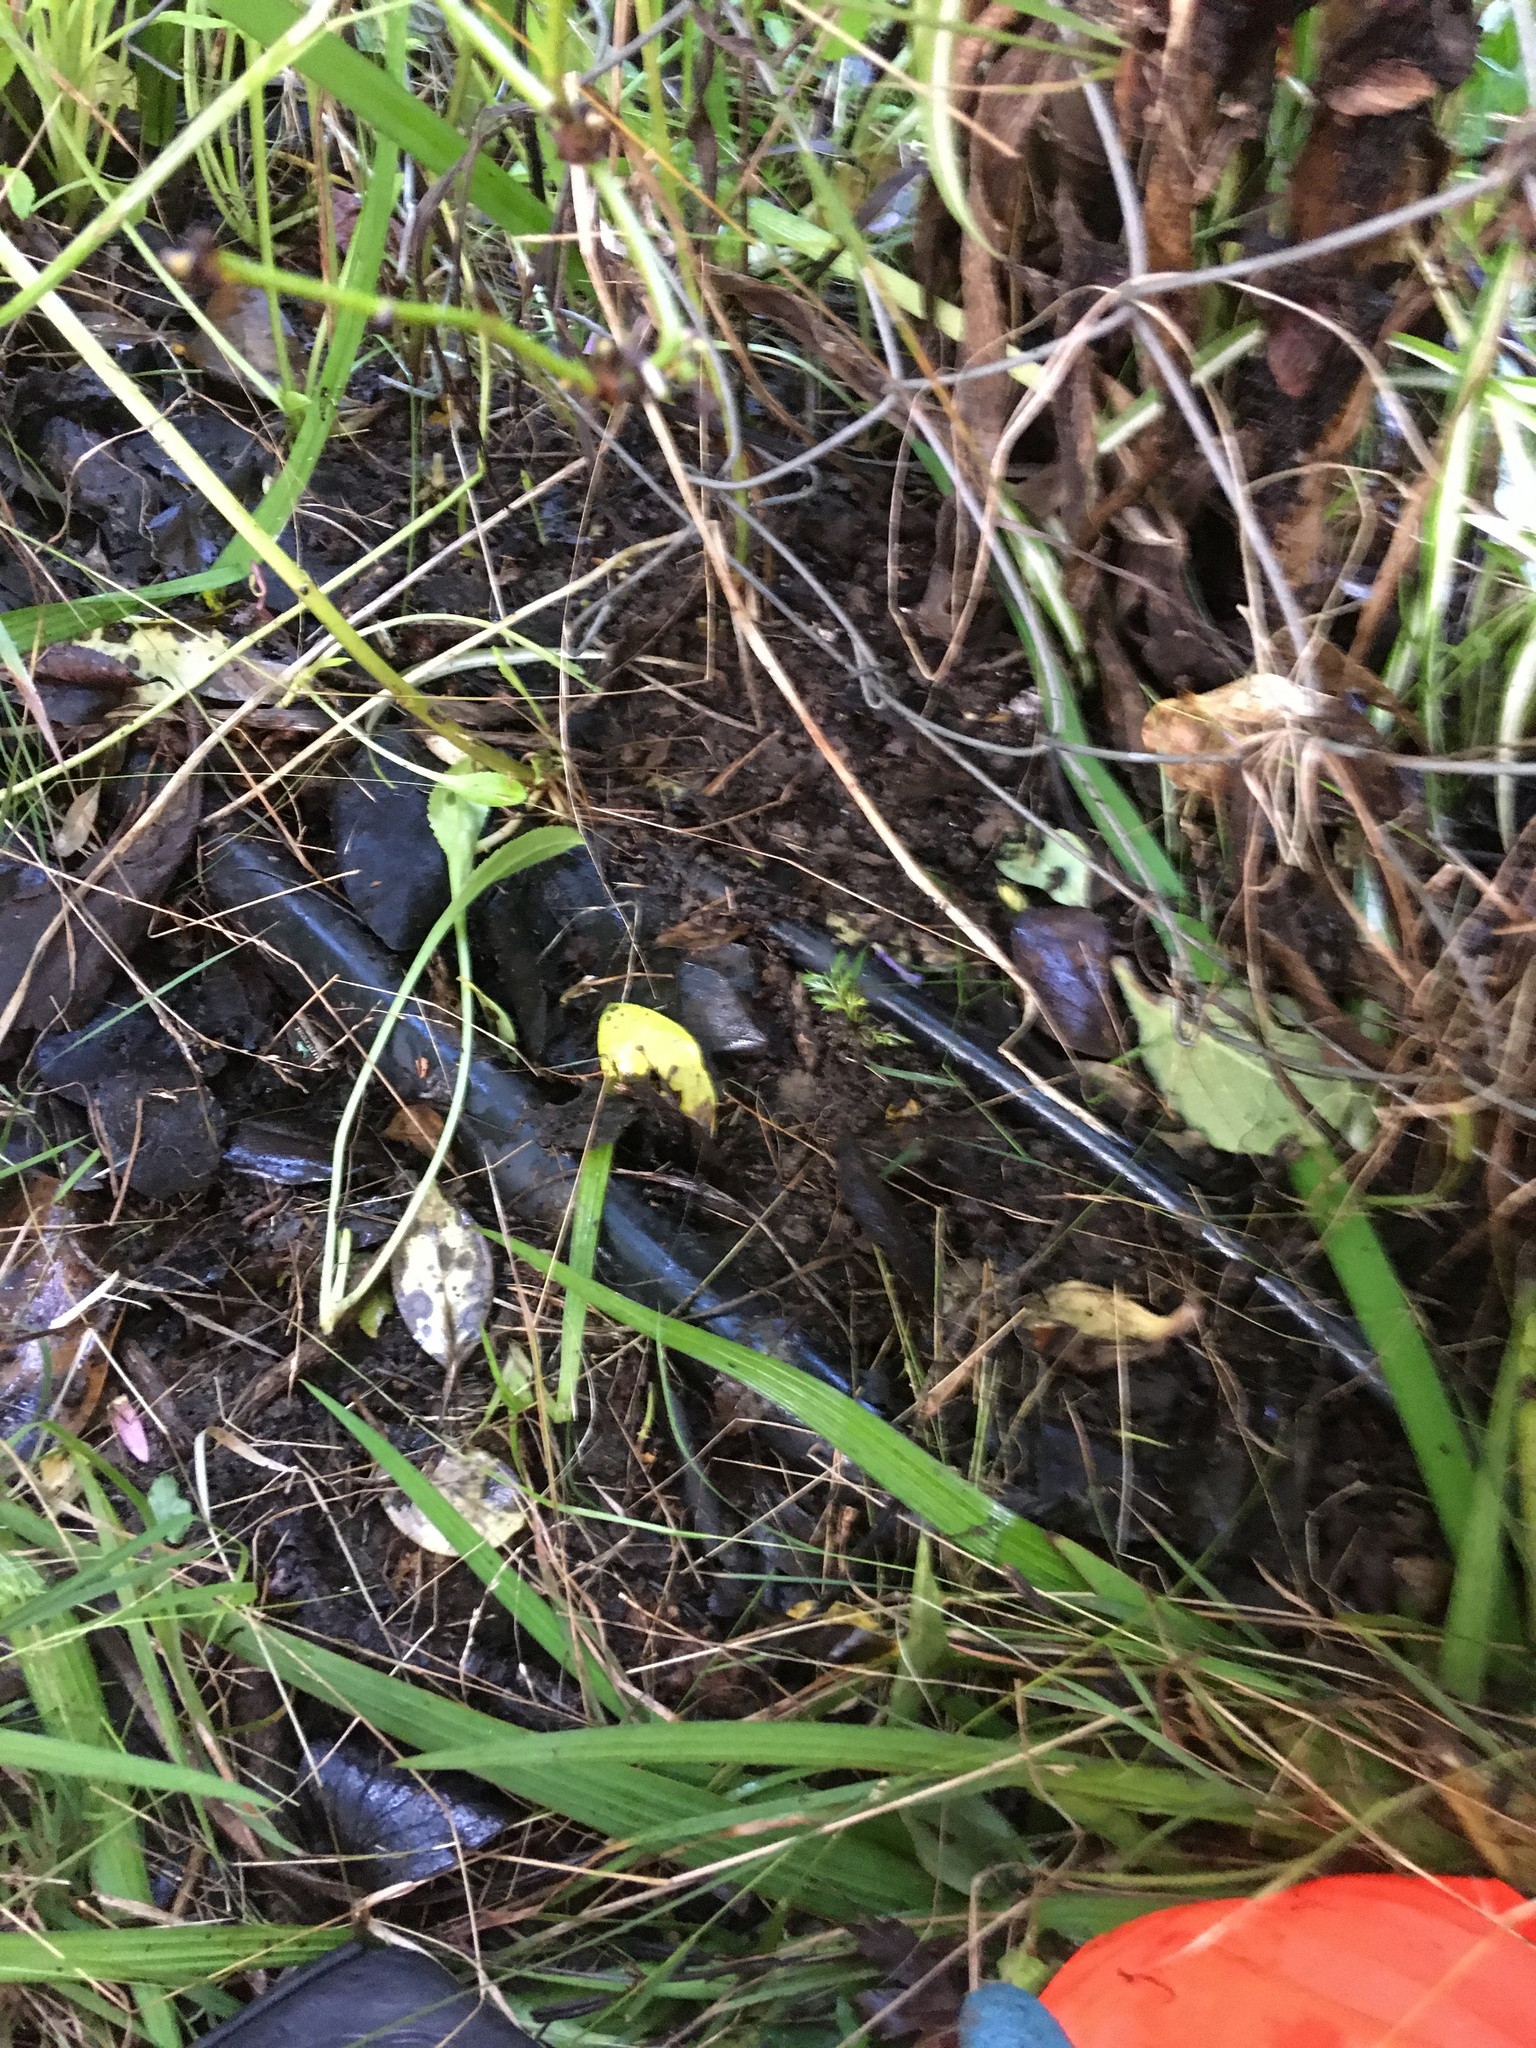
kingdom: Plantae
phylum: Tracheophyta
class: Pinopsida
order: Pinales
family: Phyllocladaceae
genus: Phyllocladus
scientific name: Phyllocladus trichomanoides
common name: Celery pine
